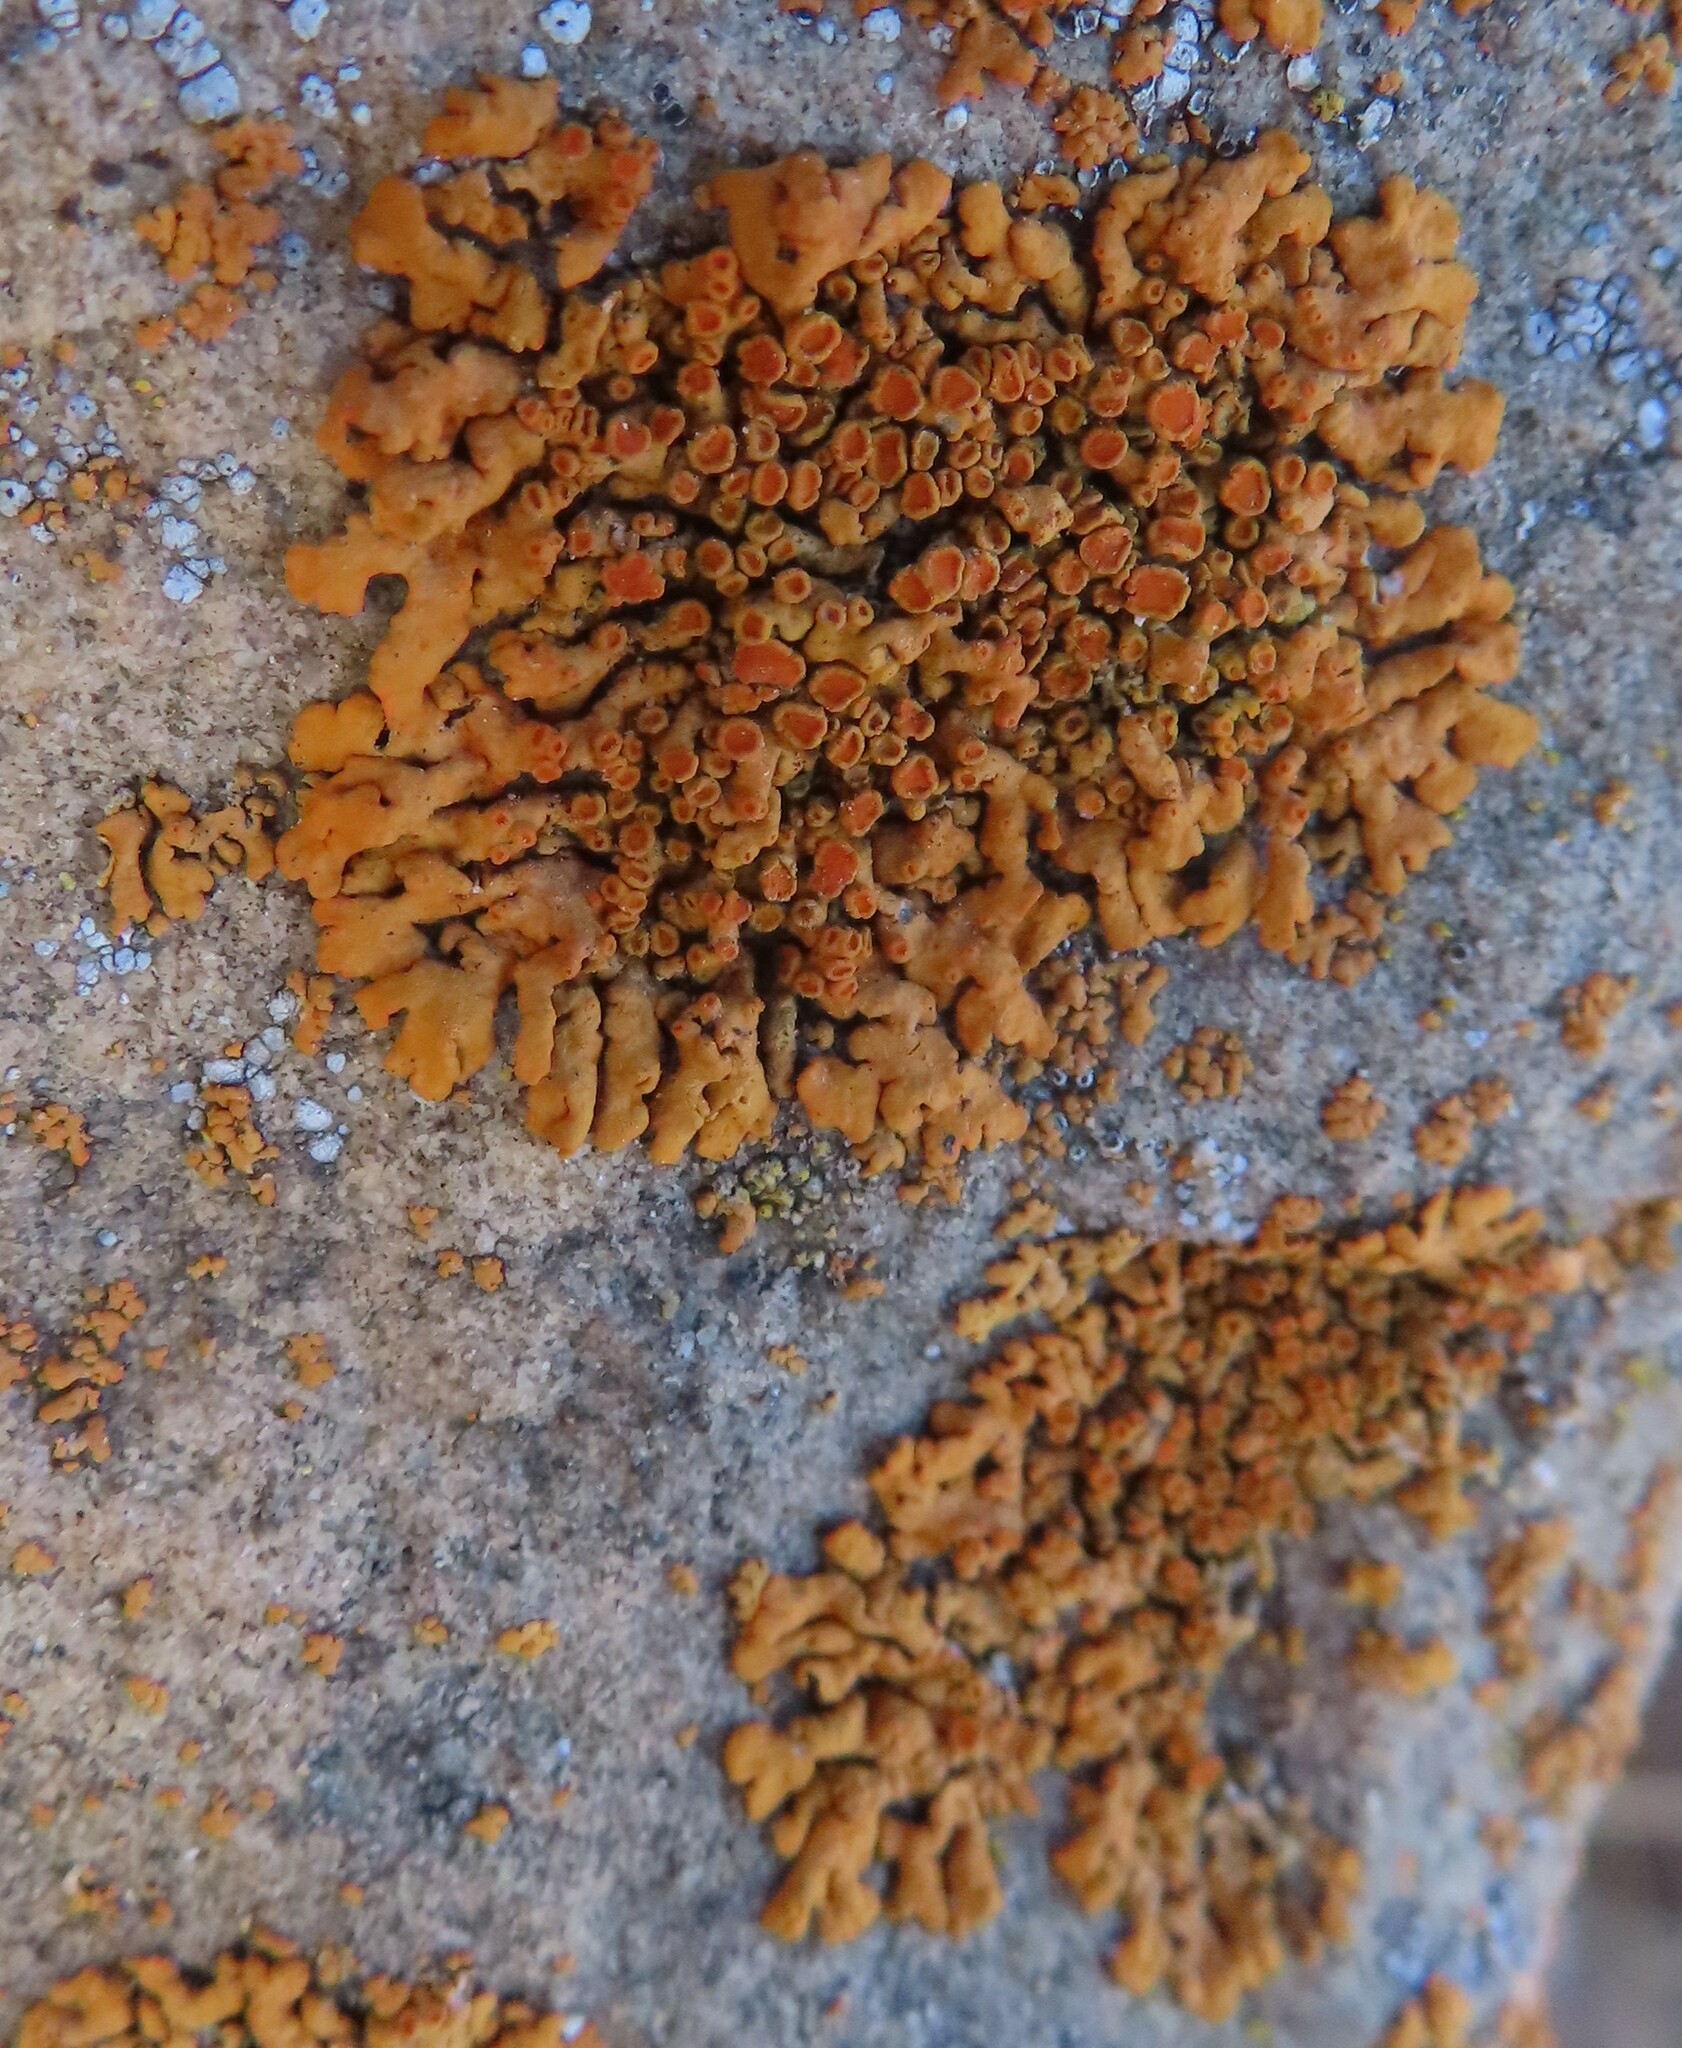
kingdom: Fungi
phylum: Ascomycota
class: Lecanoromycetes
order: Teloschistales
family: Teloschistaceae
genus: Xanthoria
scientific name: Xanthoria elegans
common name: Elegant sunburst lichen
